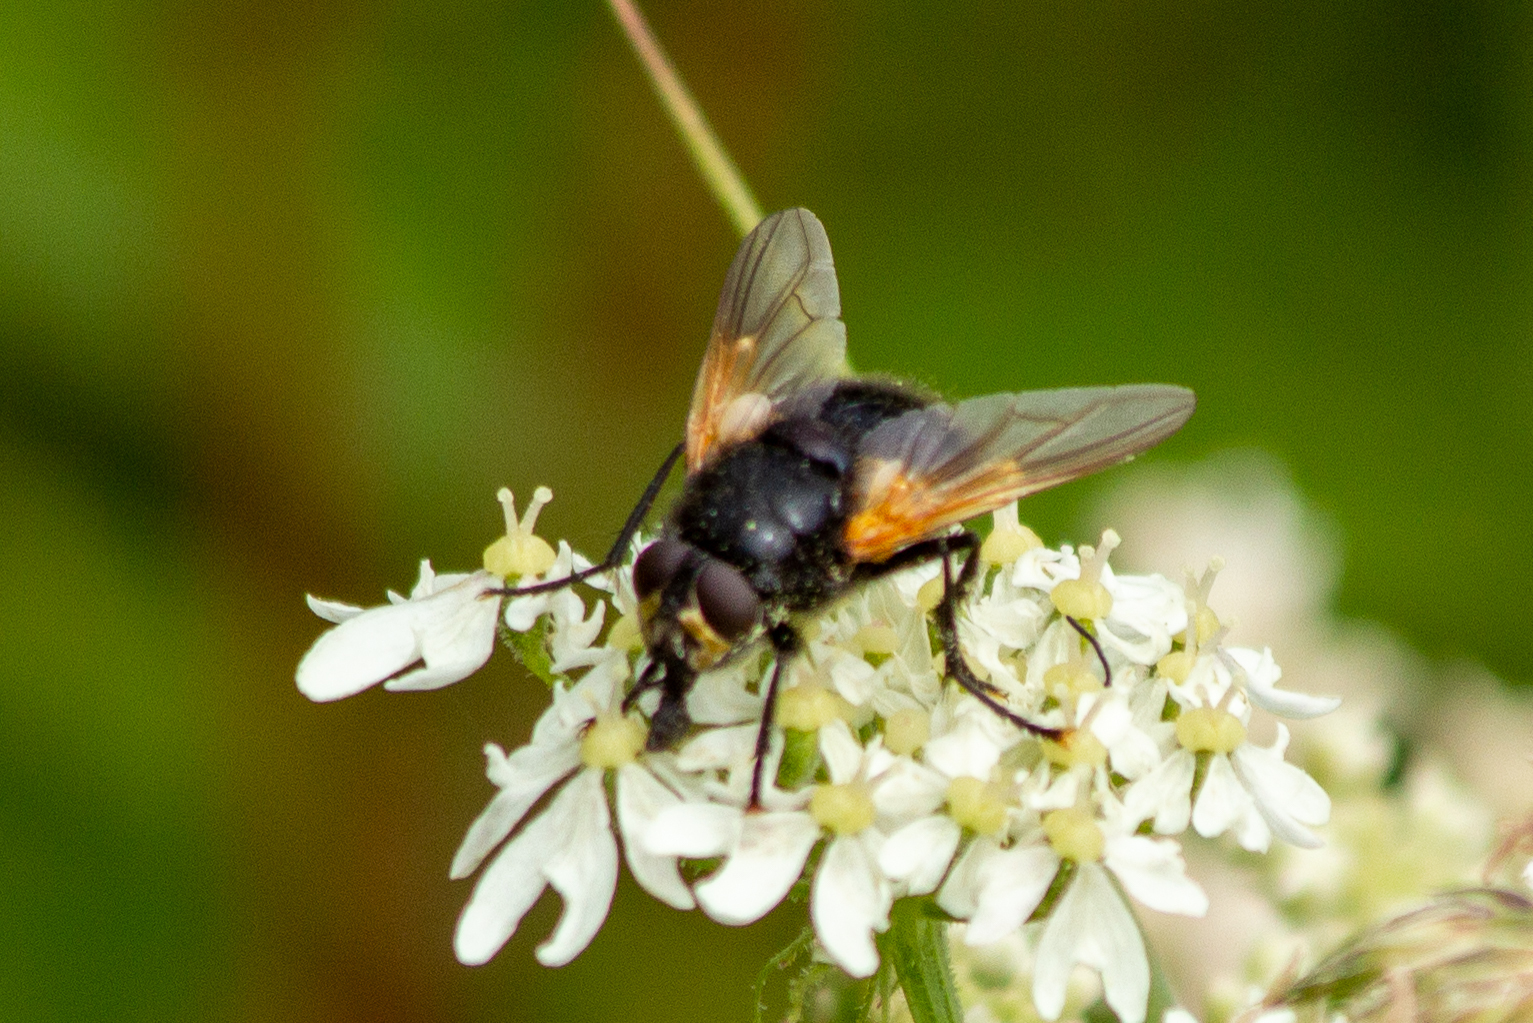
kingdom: Animalia
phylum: Arthropoda
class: Insecta
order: Diptera
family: Muscidae
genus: Mesembrina
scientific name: Mesembrina meridiana
